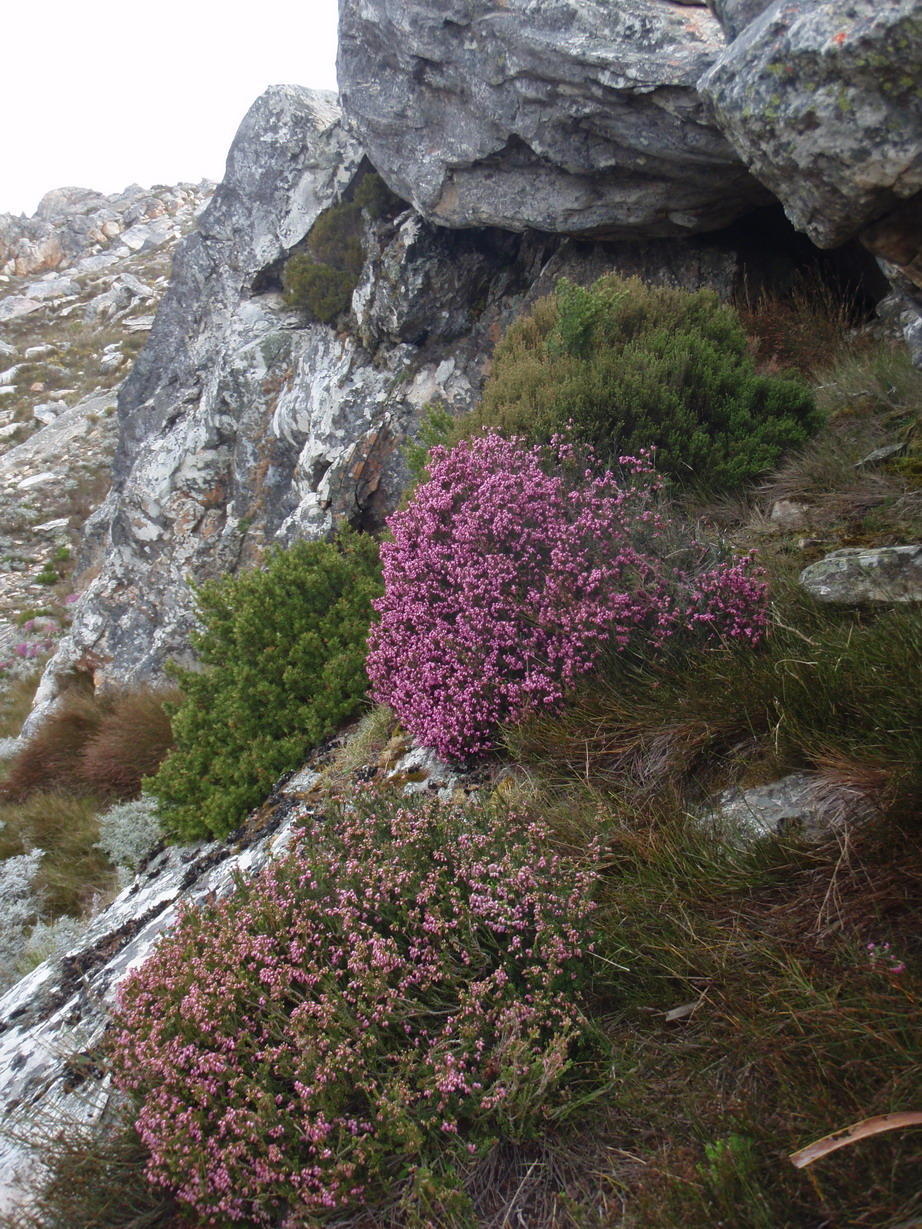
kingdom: Plantae
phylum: Tracheophyta
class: Magnoliopsida
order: Ericales
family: Ericaceae
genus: Erica
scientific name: Erica nubigena
